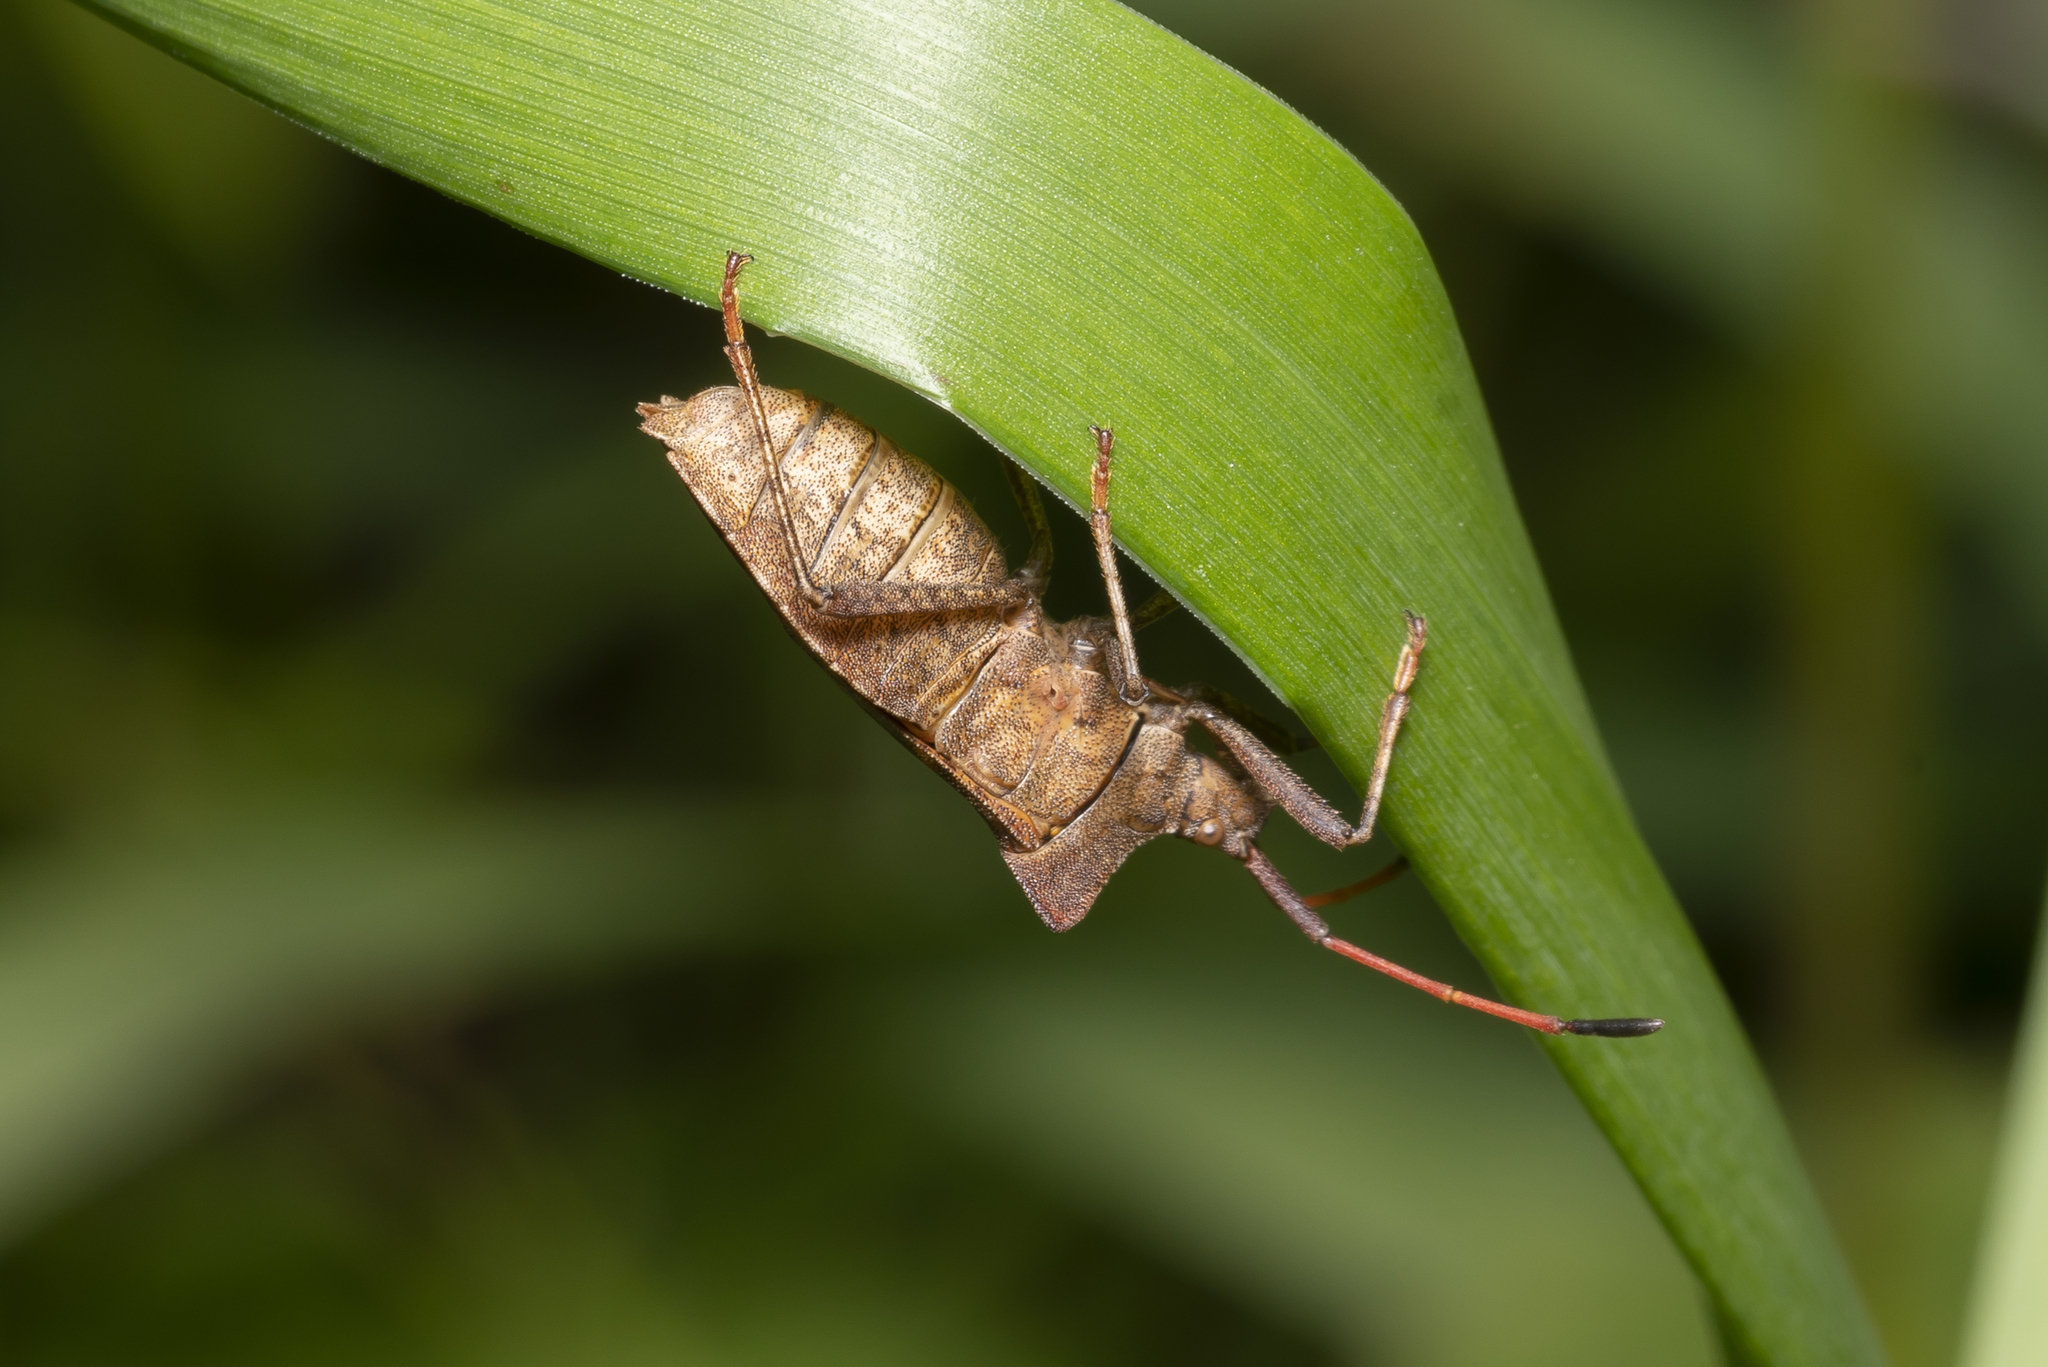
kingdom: Animalia
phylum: Arthropoda
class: Insecta
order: Hemiptera
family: Coreidae
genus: Coreus
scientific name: Coreus marginatus
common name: Dock bug
